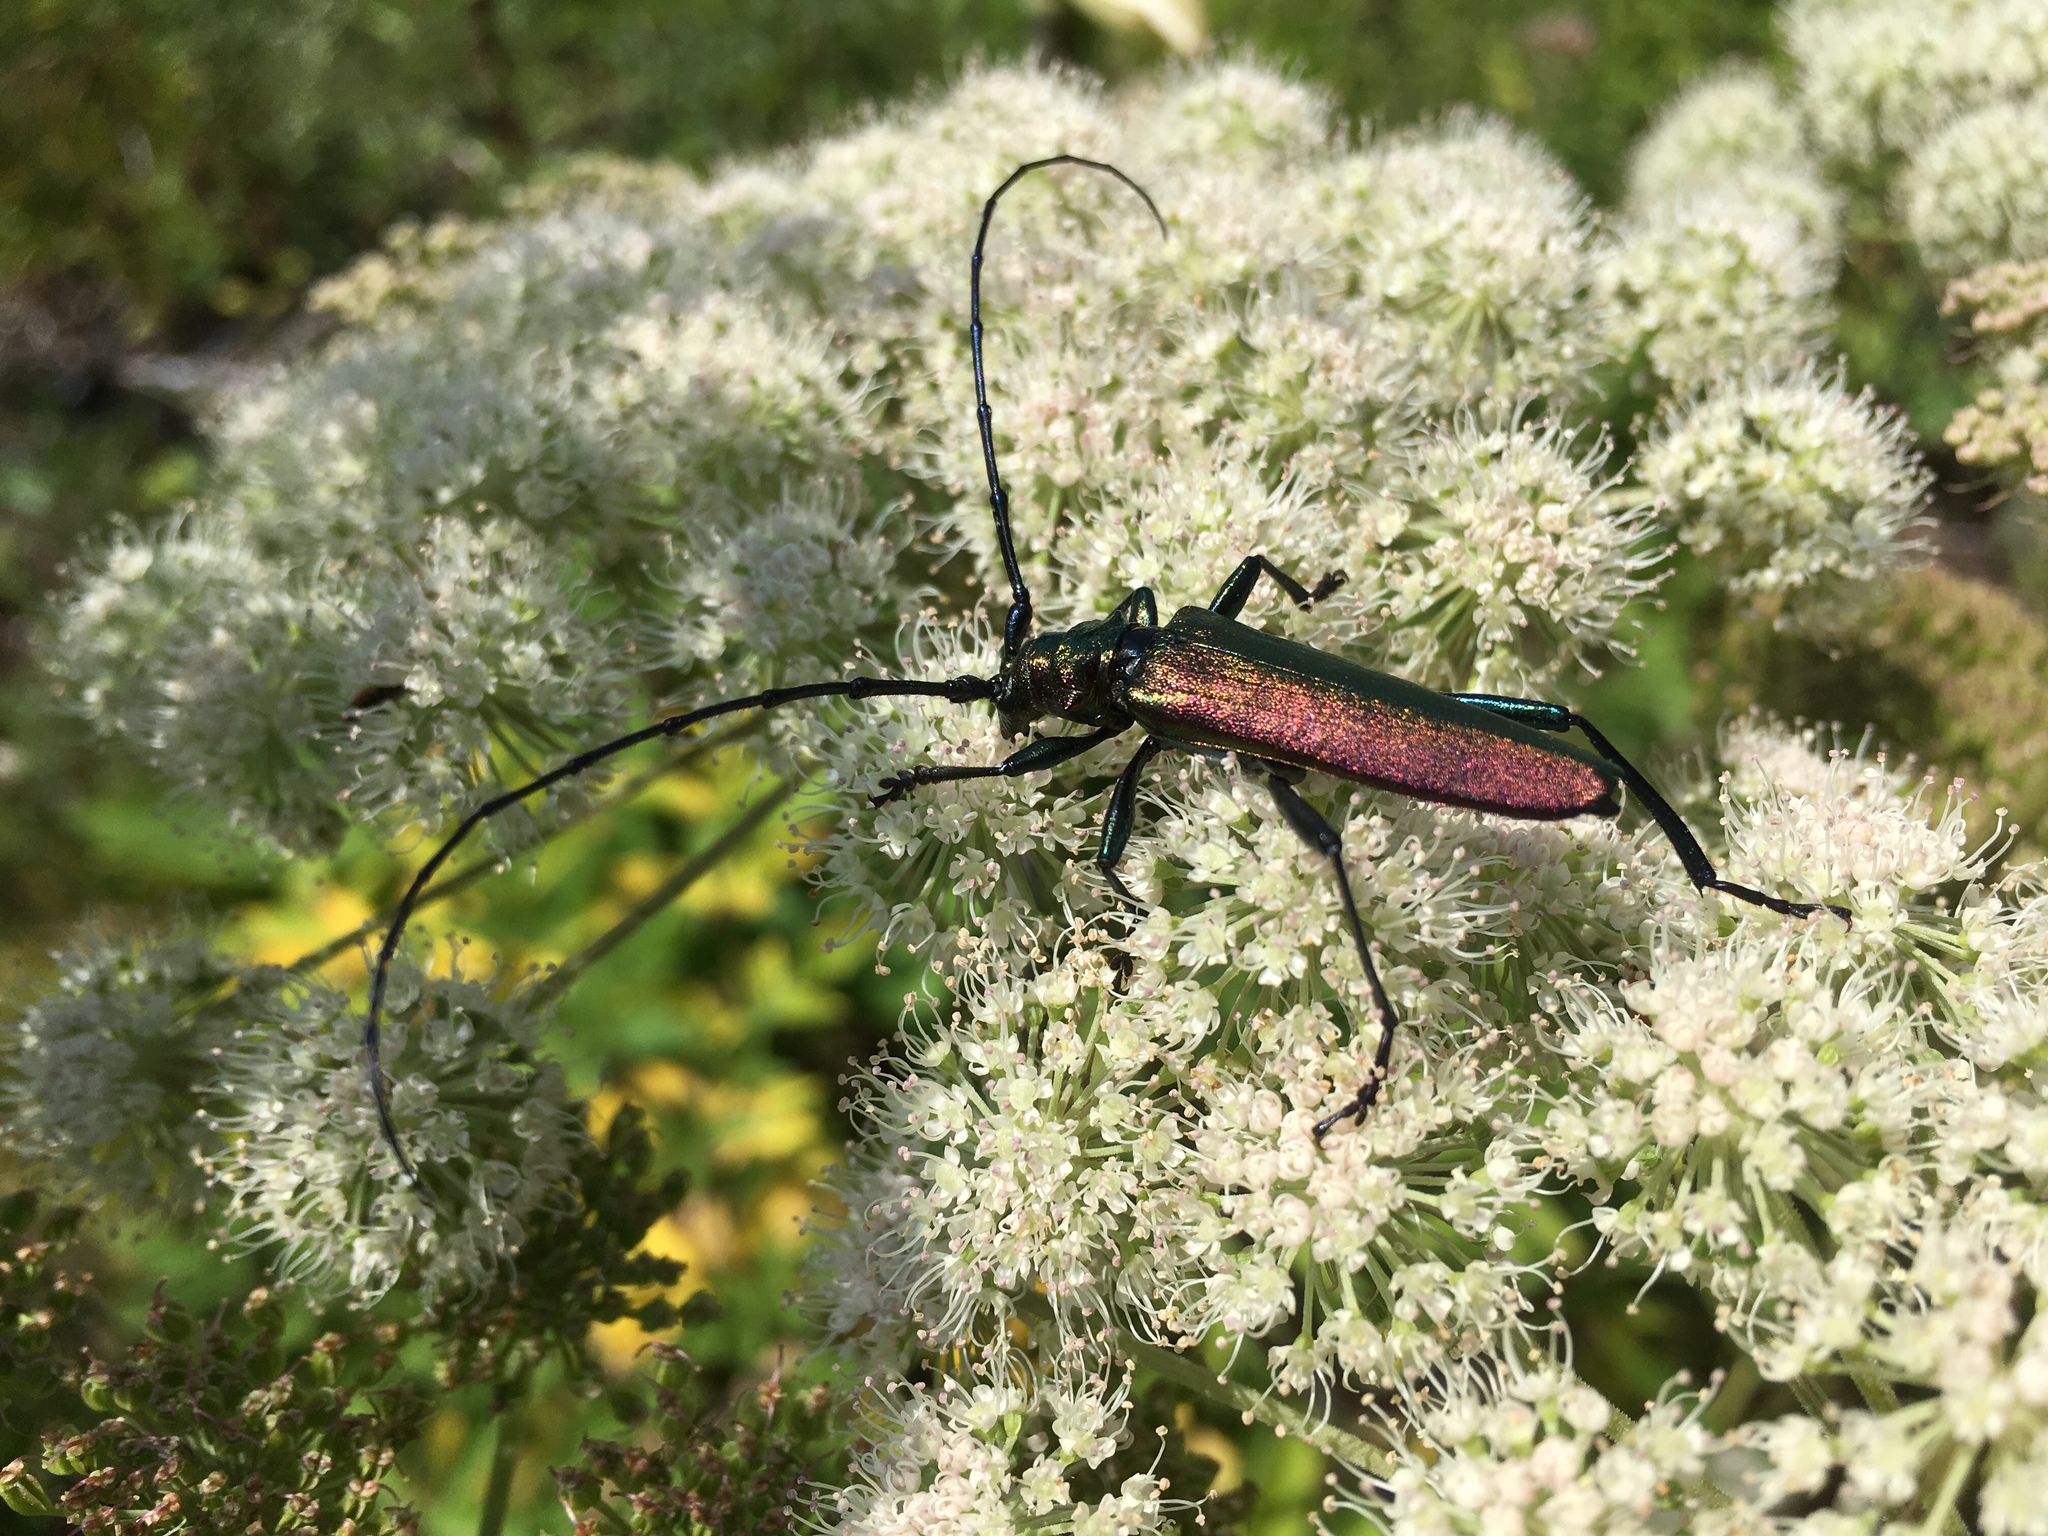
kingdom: Animalia
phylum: Arthropoda
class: Insecta
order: Coleoptera
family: Cerambycidae
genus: Aromia
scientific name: Aromia moschata
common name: Musk beetle
